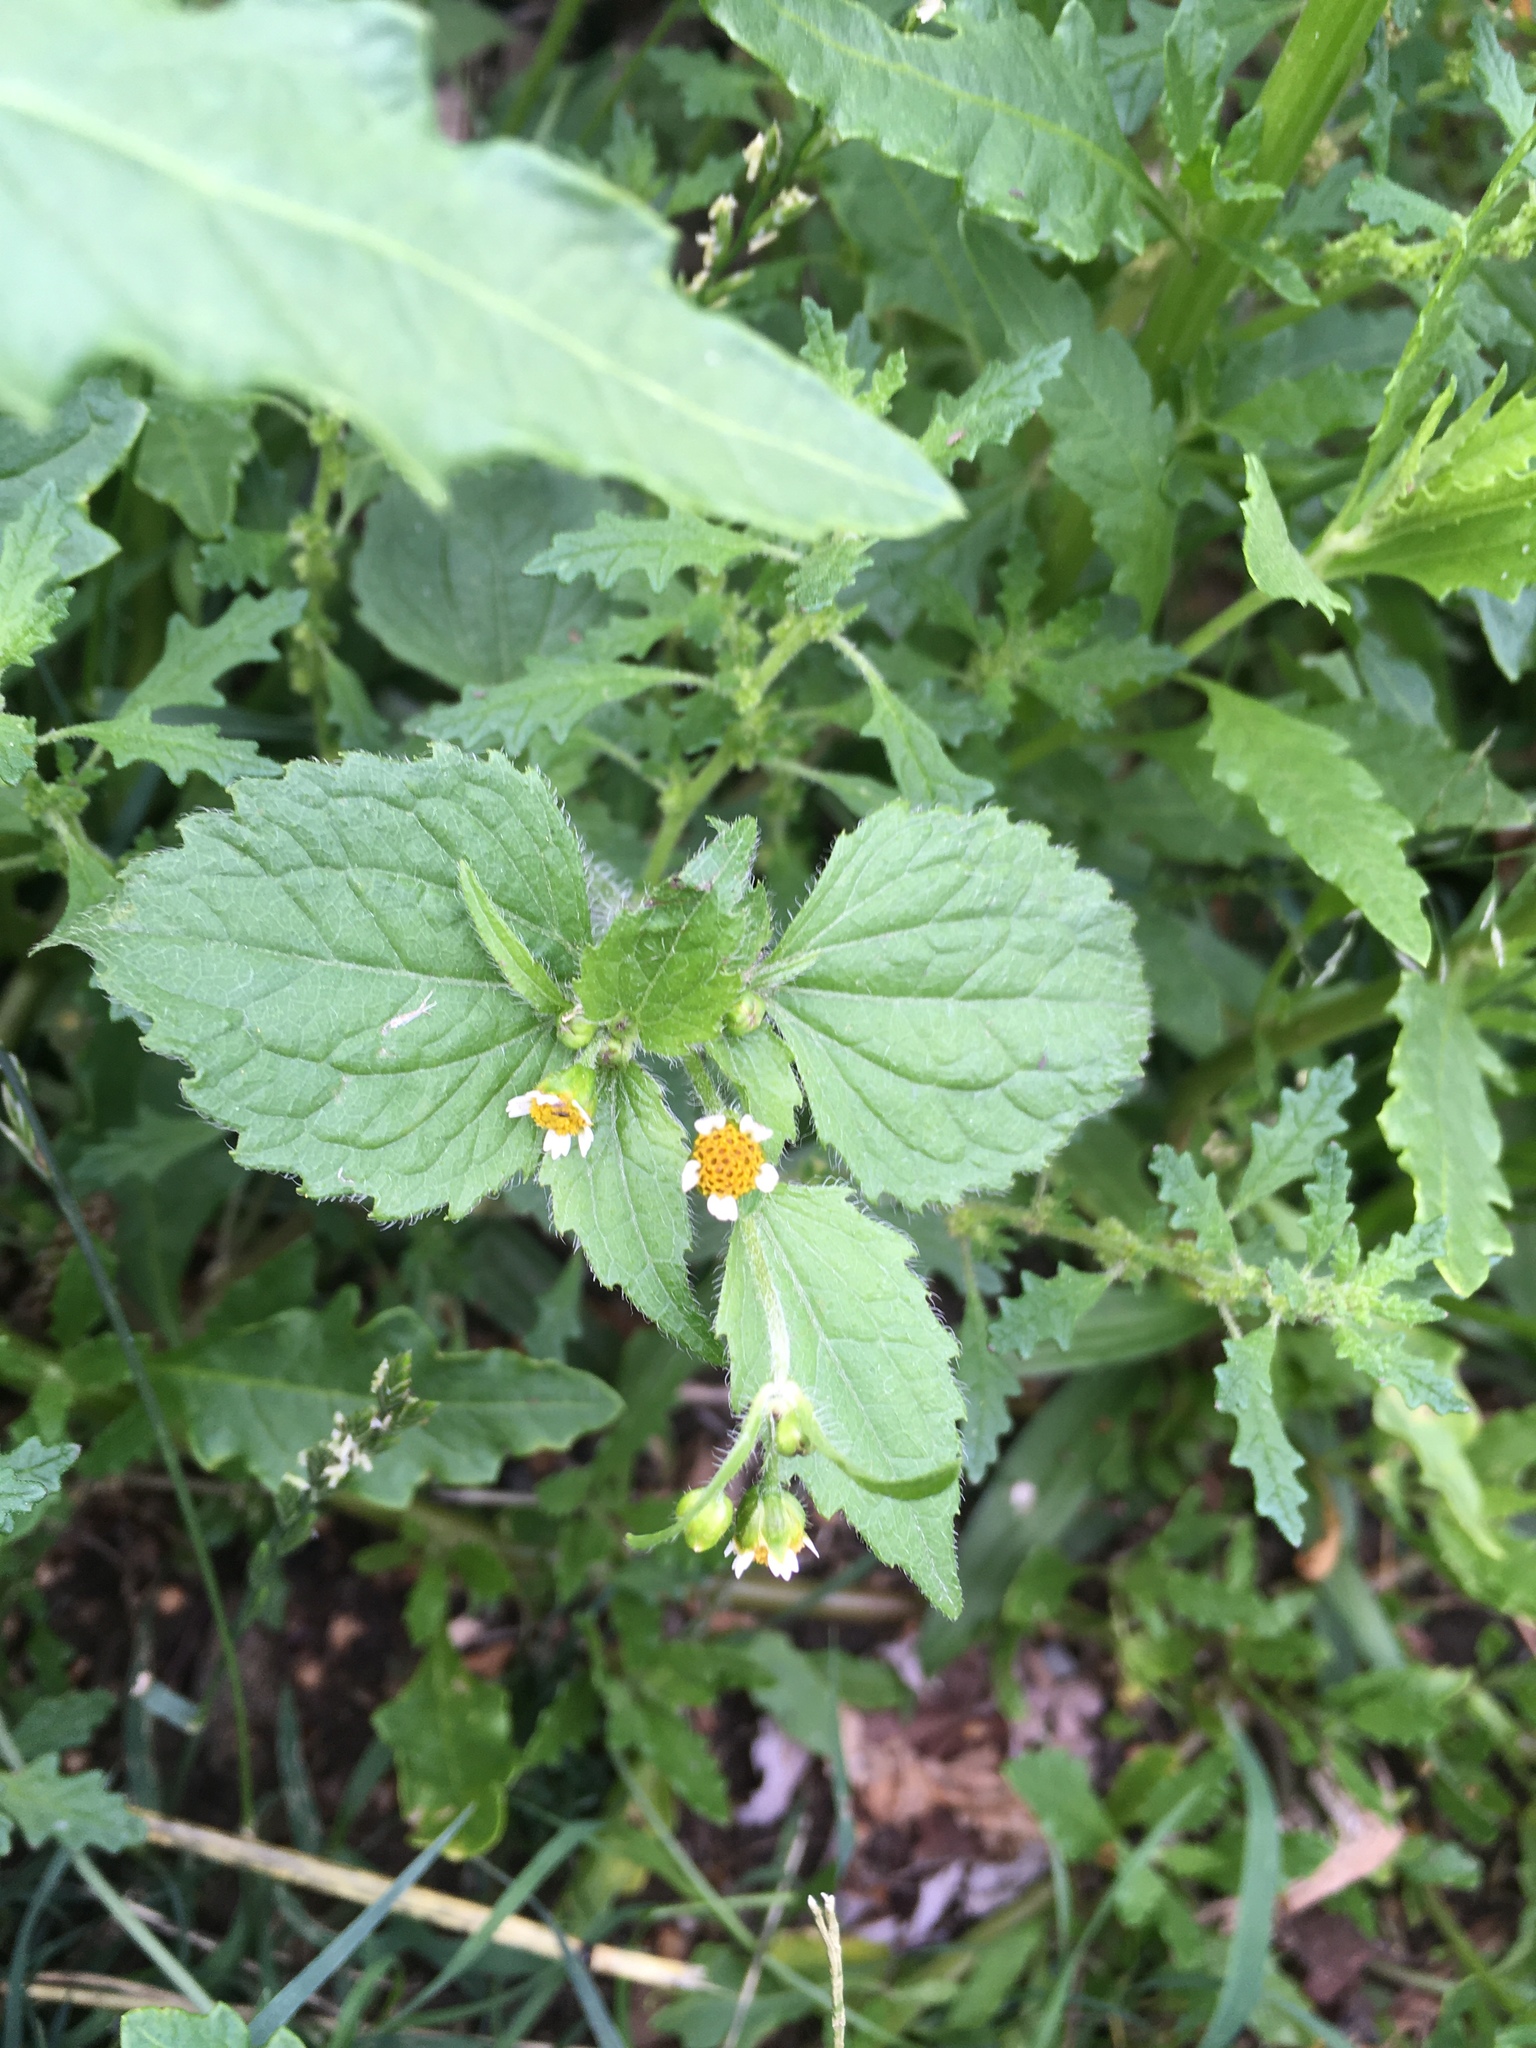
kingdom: Plantae
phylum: Tracheophyta
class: Magnoliopsida
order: Asterales
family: Asteraceae
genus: Galinsoga
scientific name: Galinsoga quadriradiata
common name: Shaggy soldier
